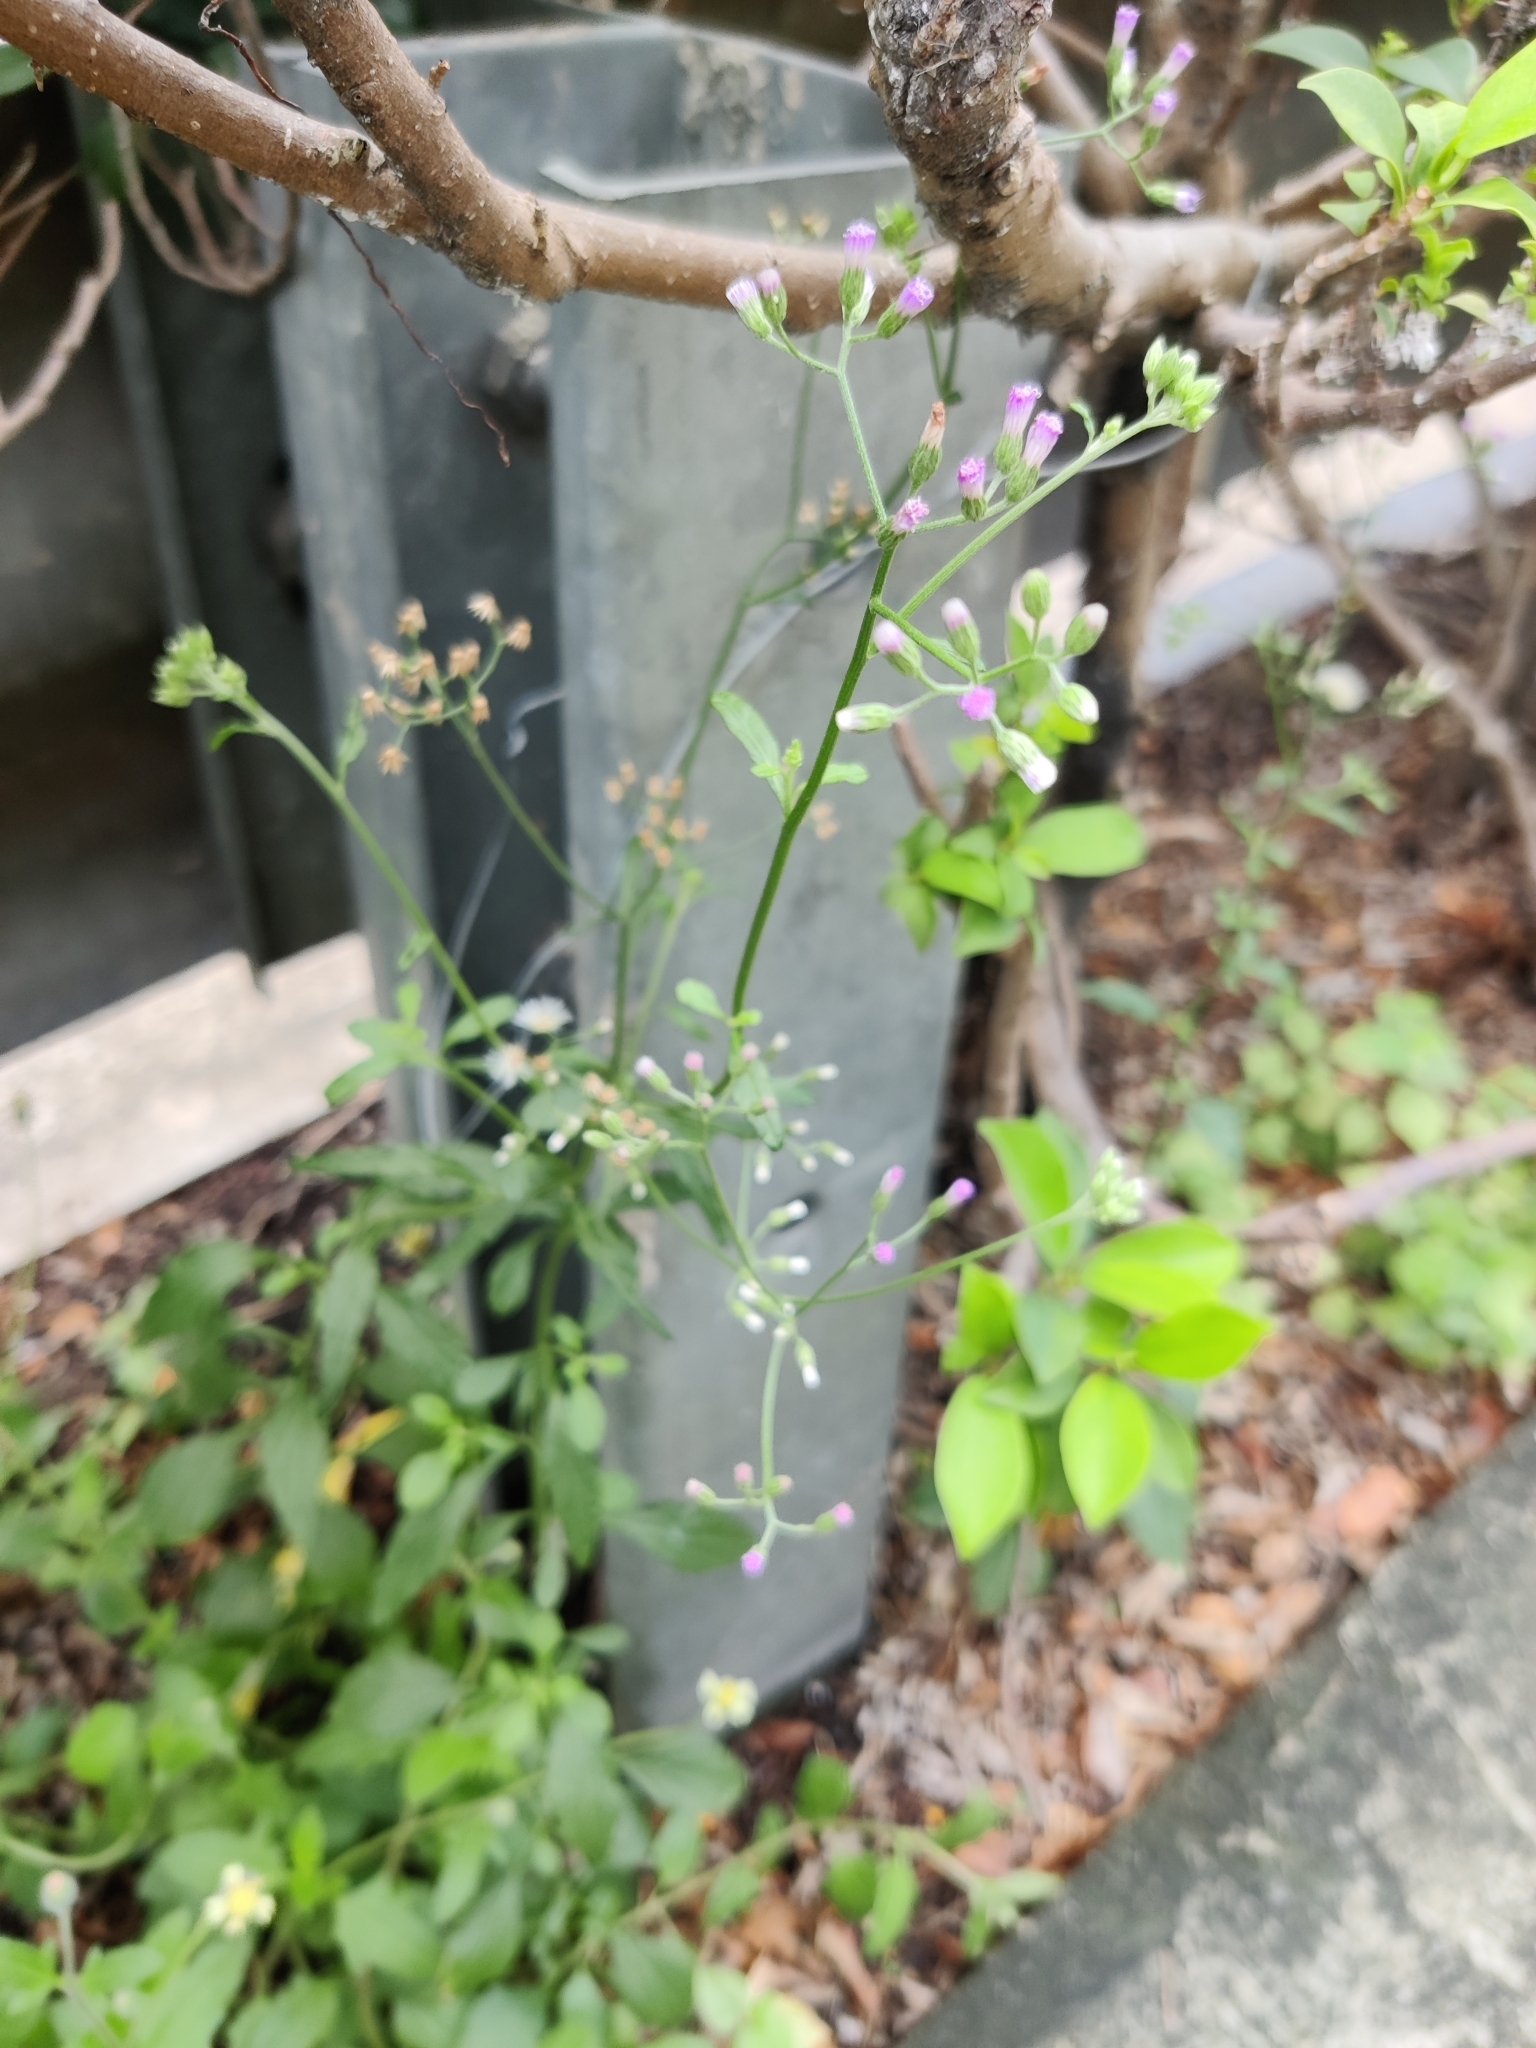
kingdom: Plantae
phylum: Tracheophyta
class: Magnoliopsida
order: Asterales
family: Asteraceae
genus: Cyanthillium
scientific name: Cyanthillium cinereum
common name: Little ironweed
